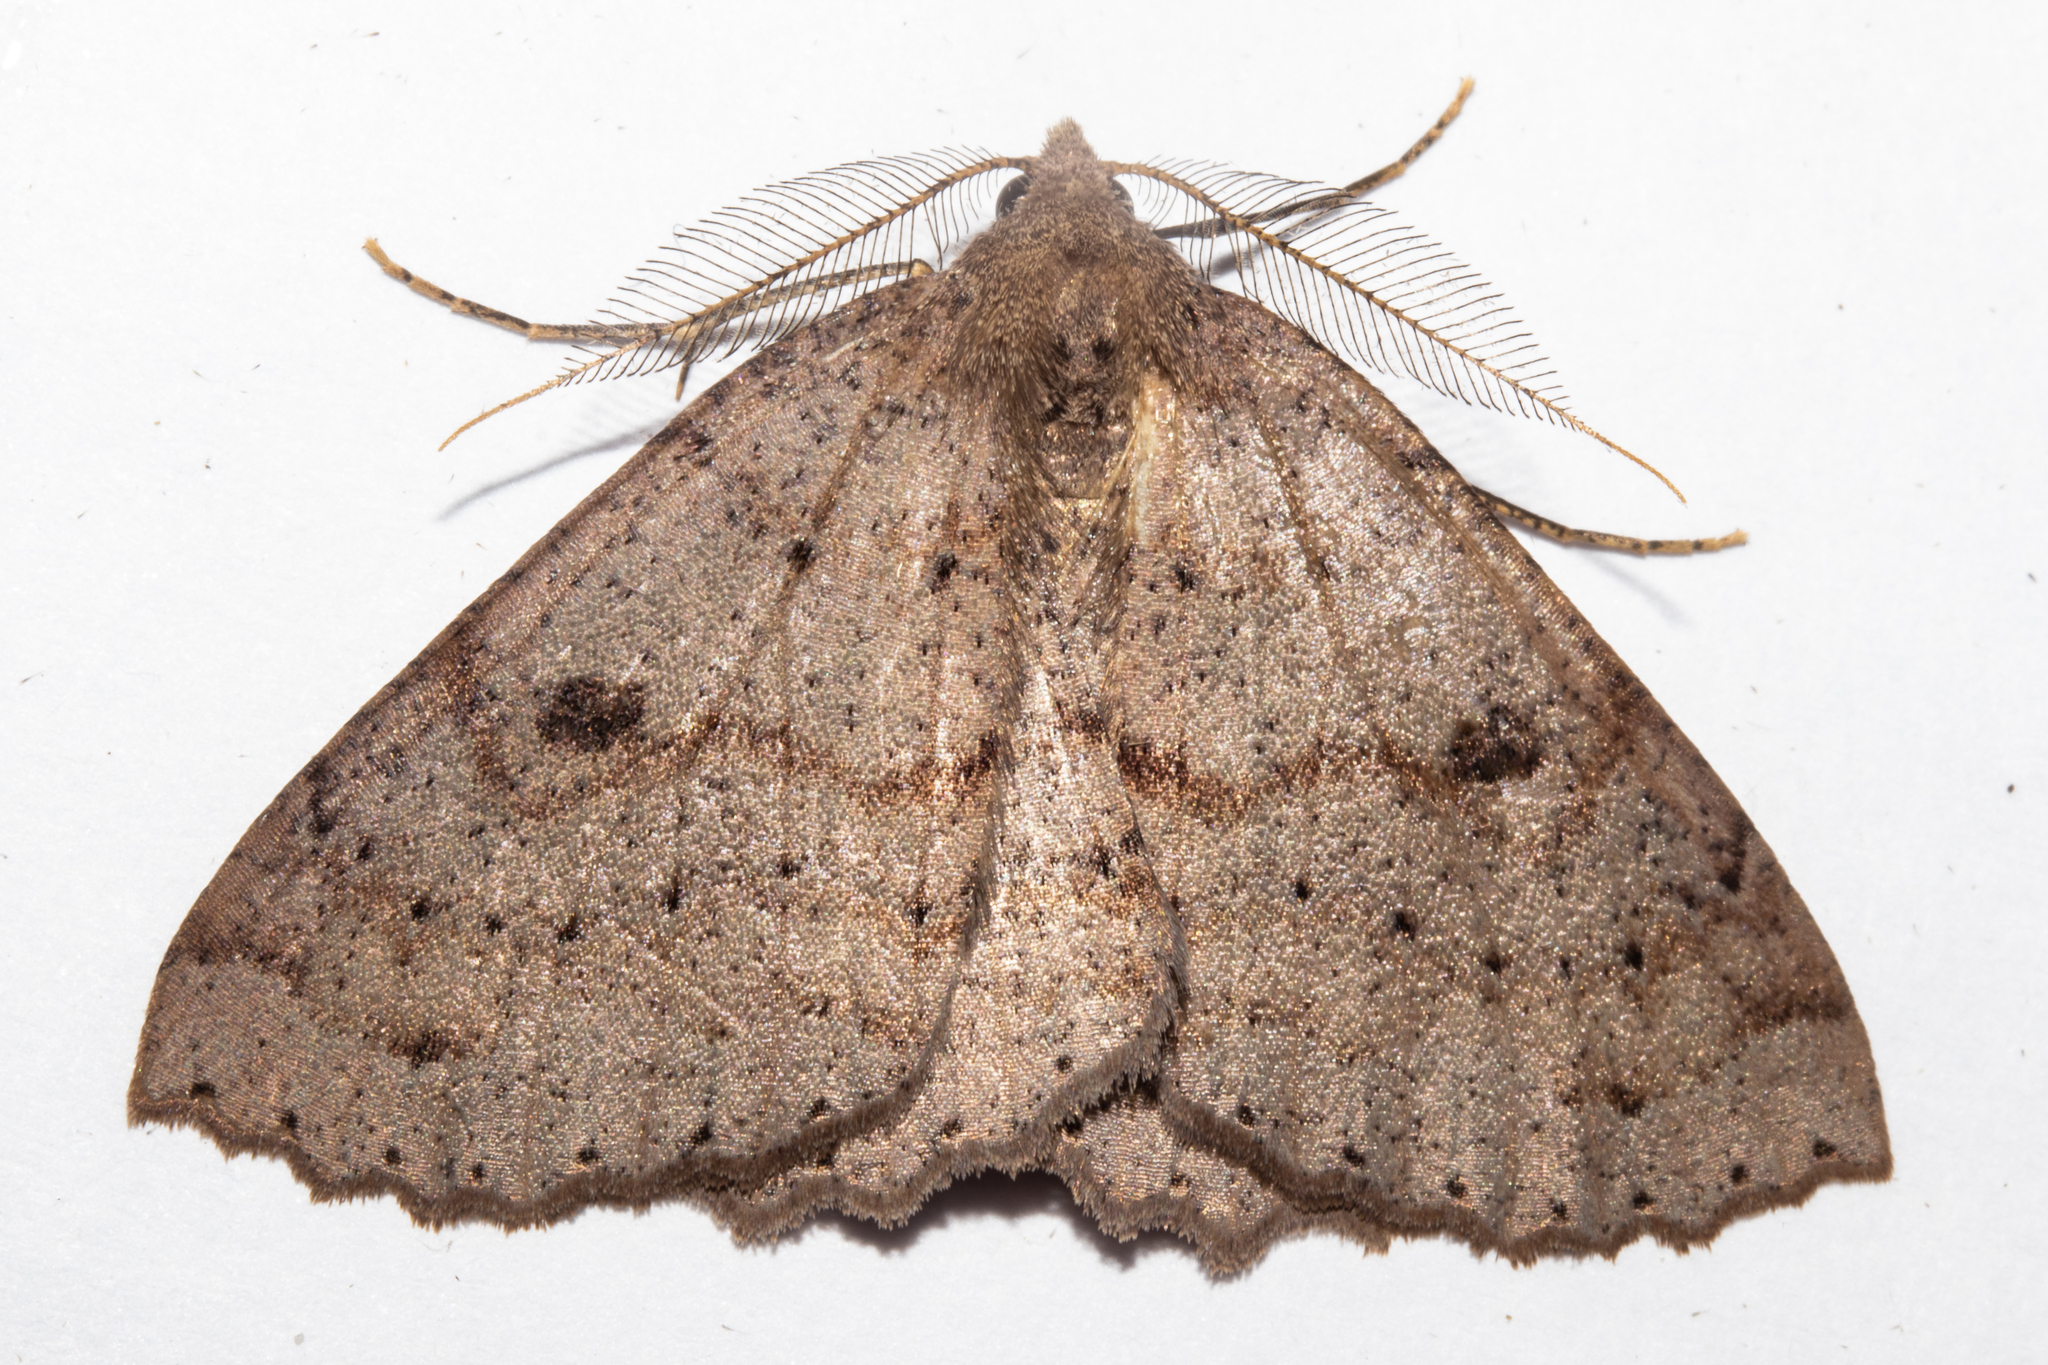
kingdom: Animalia
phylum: Arthropoda
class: Insecta
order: Lepidoptera
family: Geometridae
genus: Cleora
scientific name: Cleora scriptaria
